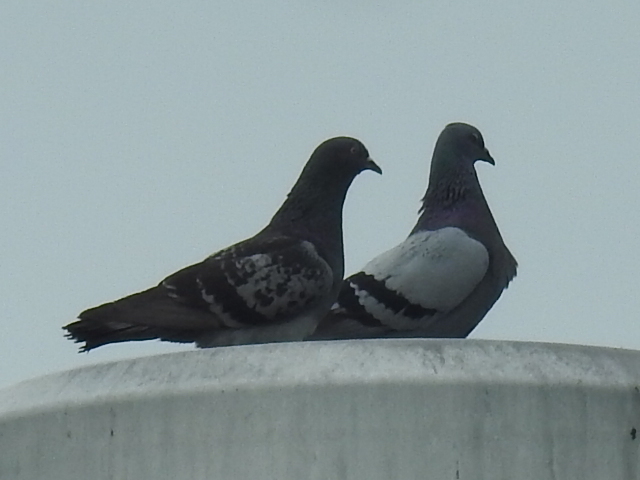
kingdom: Animalia
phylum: Chordata
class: Aves
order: Columbiformes
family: Columbidae
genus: Columba
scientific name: Columba livia
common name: Rock pigeon
